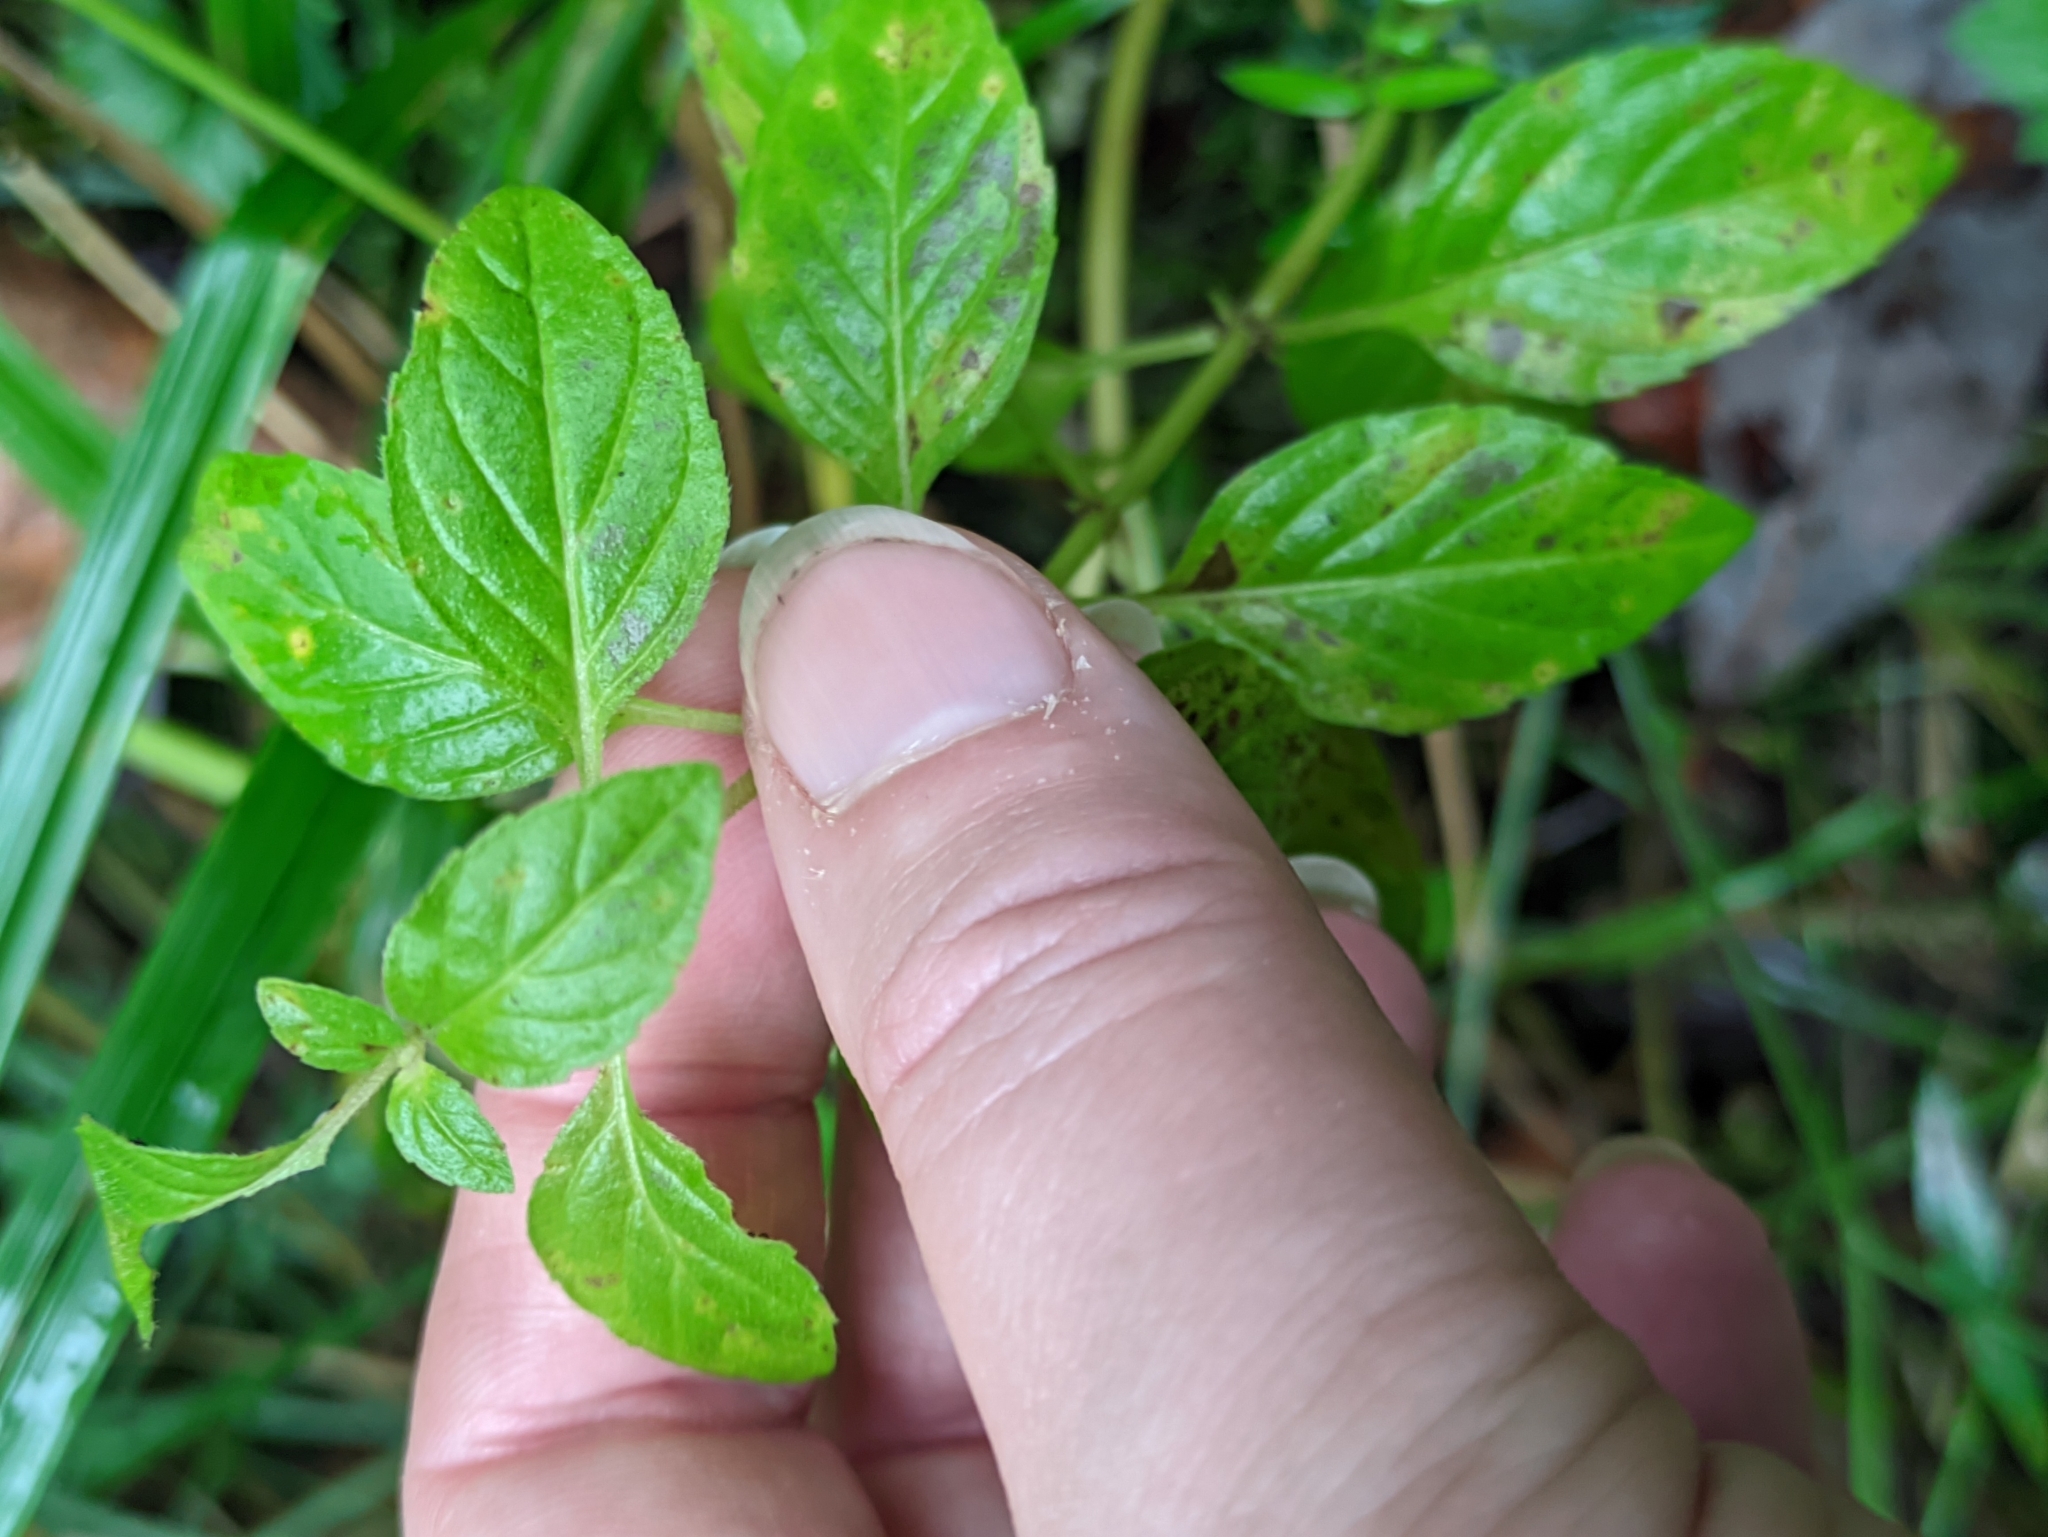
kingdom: Plantae
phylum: Tracheophyta
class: Magnoliopsida
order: Lamiales
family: Lamiaceae
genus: Mentha
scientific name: Mentha arvensis
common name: Corn mint
